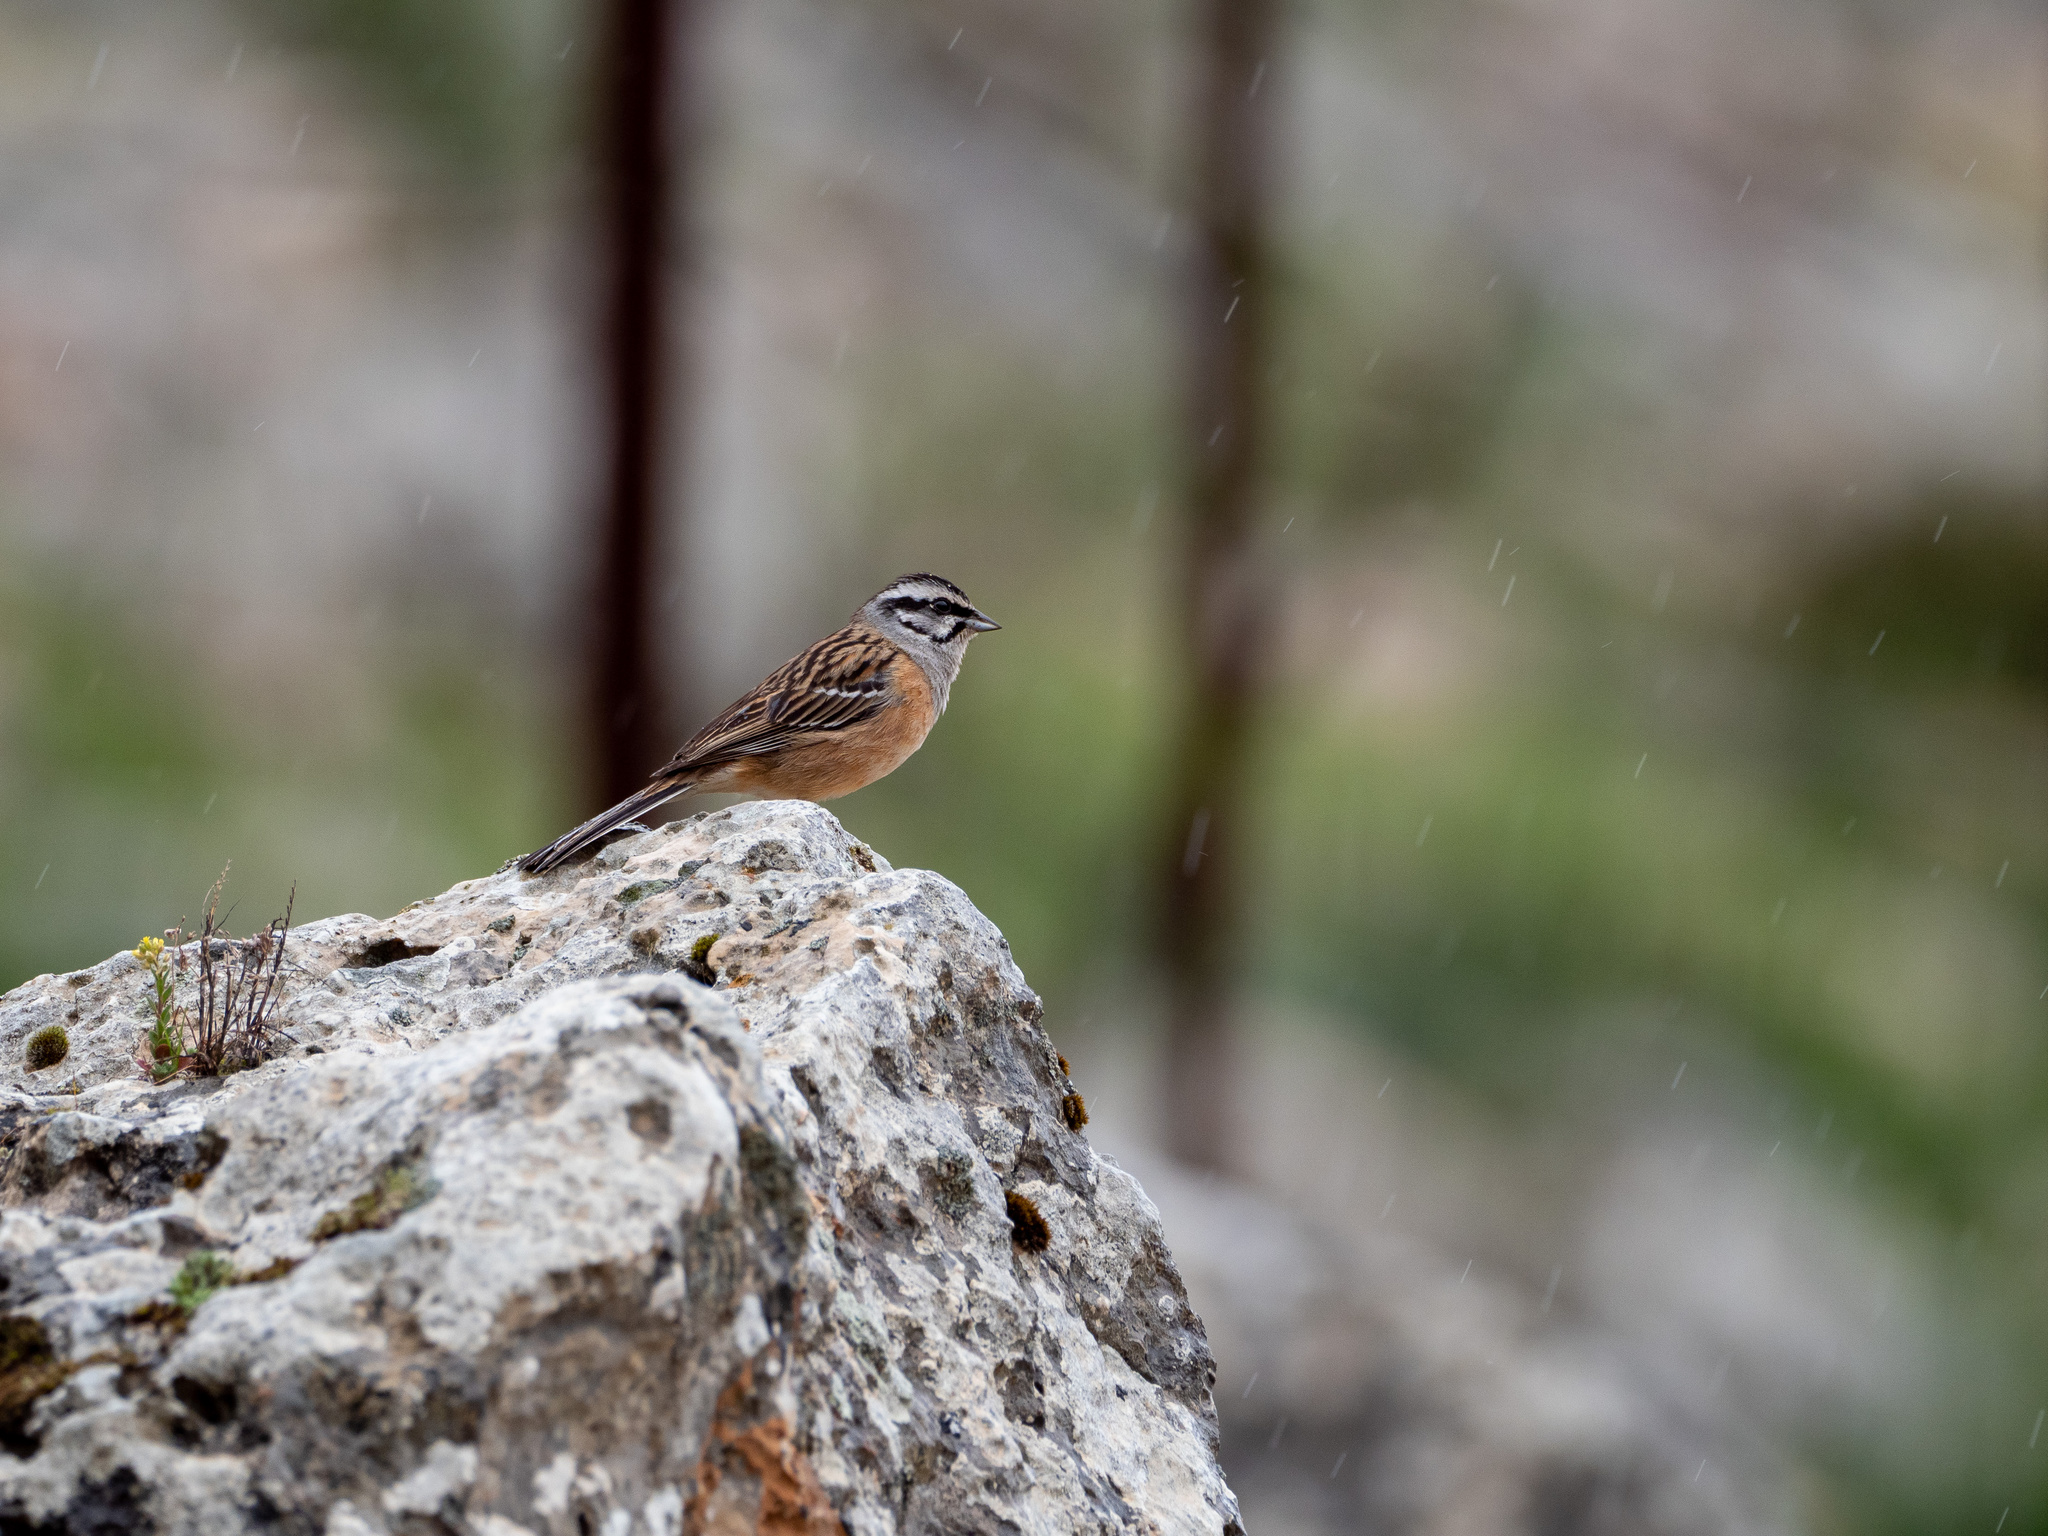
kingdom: Animalia
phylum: Chordata
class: Aves
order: Passeriformes
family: Emberizidae
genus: Emberiza
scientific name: Emberiza cia
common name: Rock bunting
